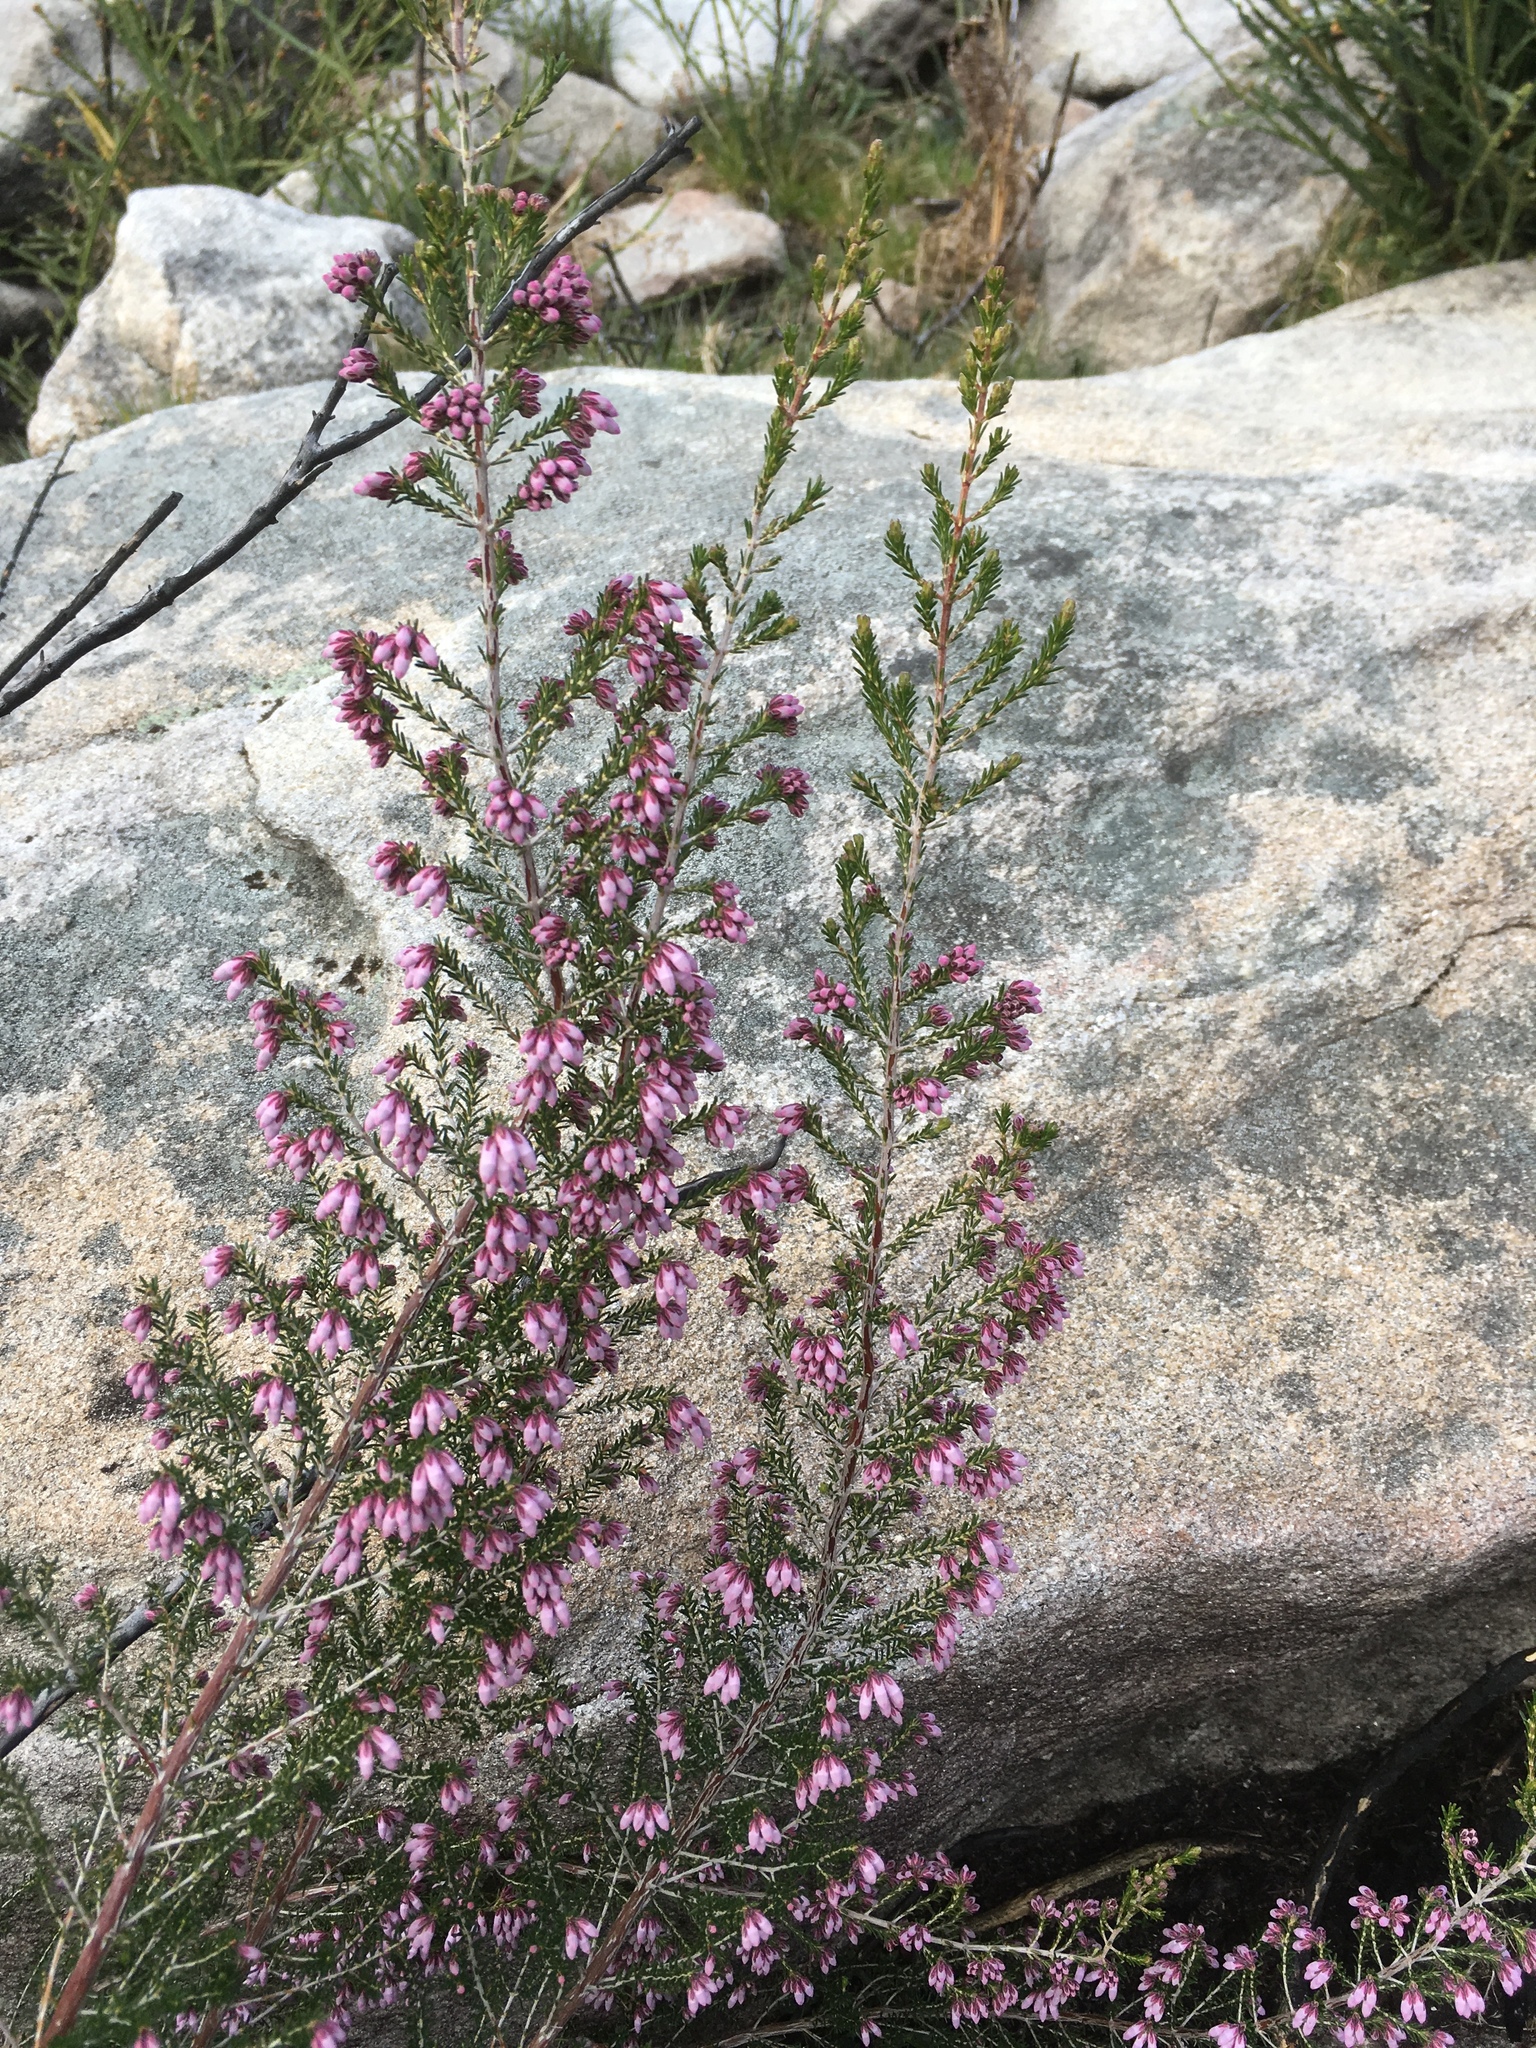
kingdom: Plantae
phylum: Tracheophyta
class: Magnoliopsida
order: Ericales
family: Ericaceae
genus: Erica
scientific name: Erica australis
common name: Spanish heath
